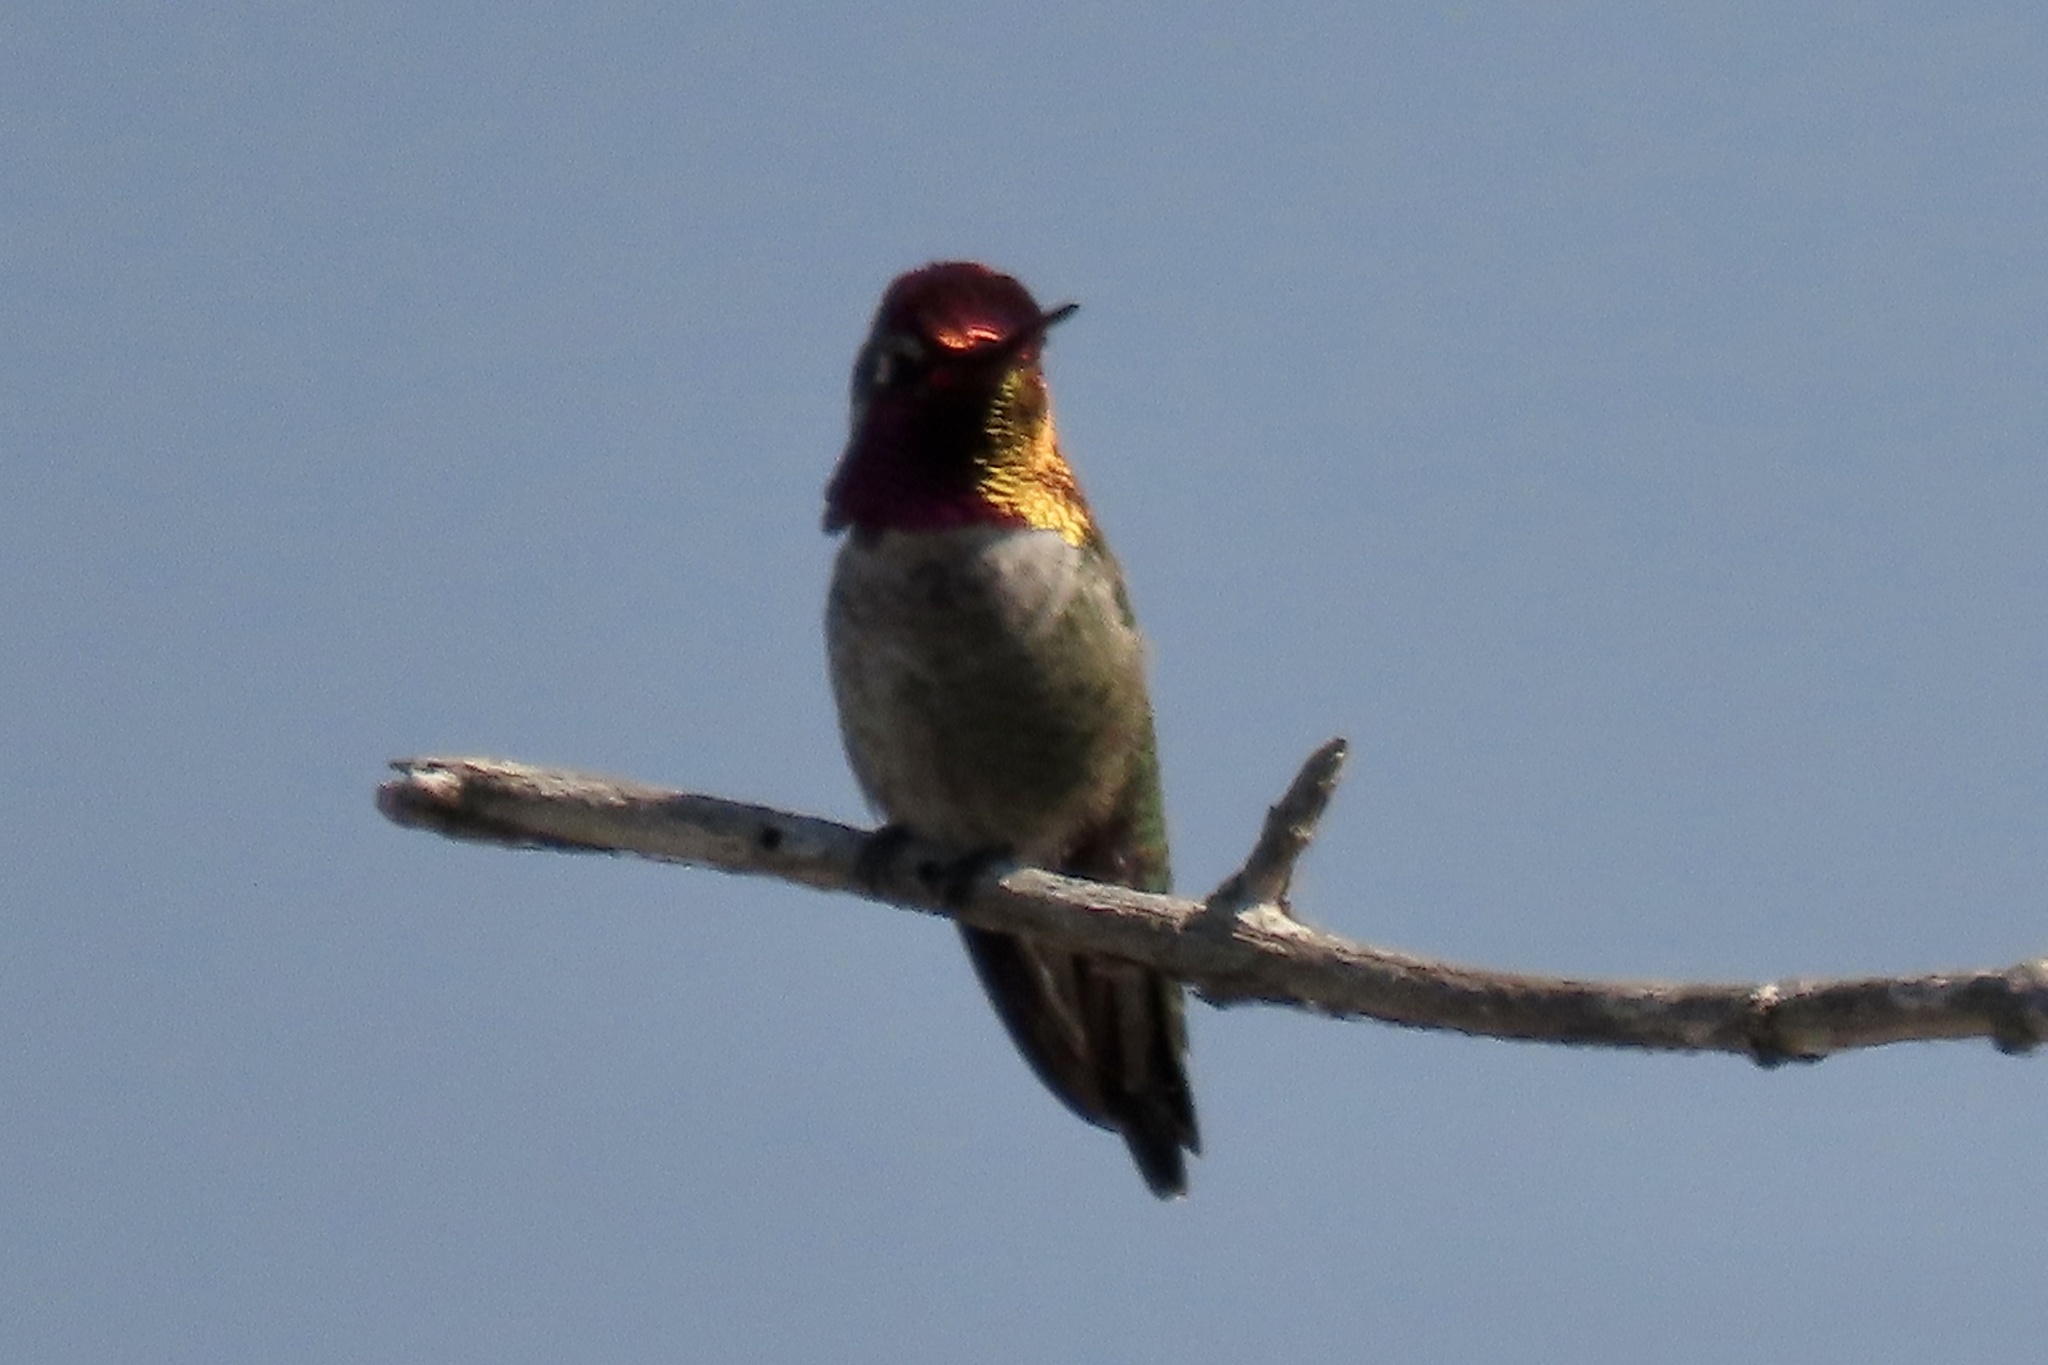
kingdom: Animalia
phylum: Chordata
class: Aves
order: Apodiformes
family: Trochilidae
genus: Calypte
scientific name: Calypte anna
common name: Anna's hummingbird
